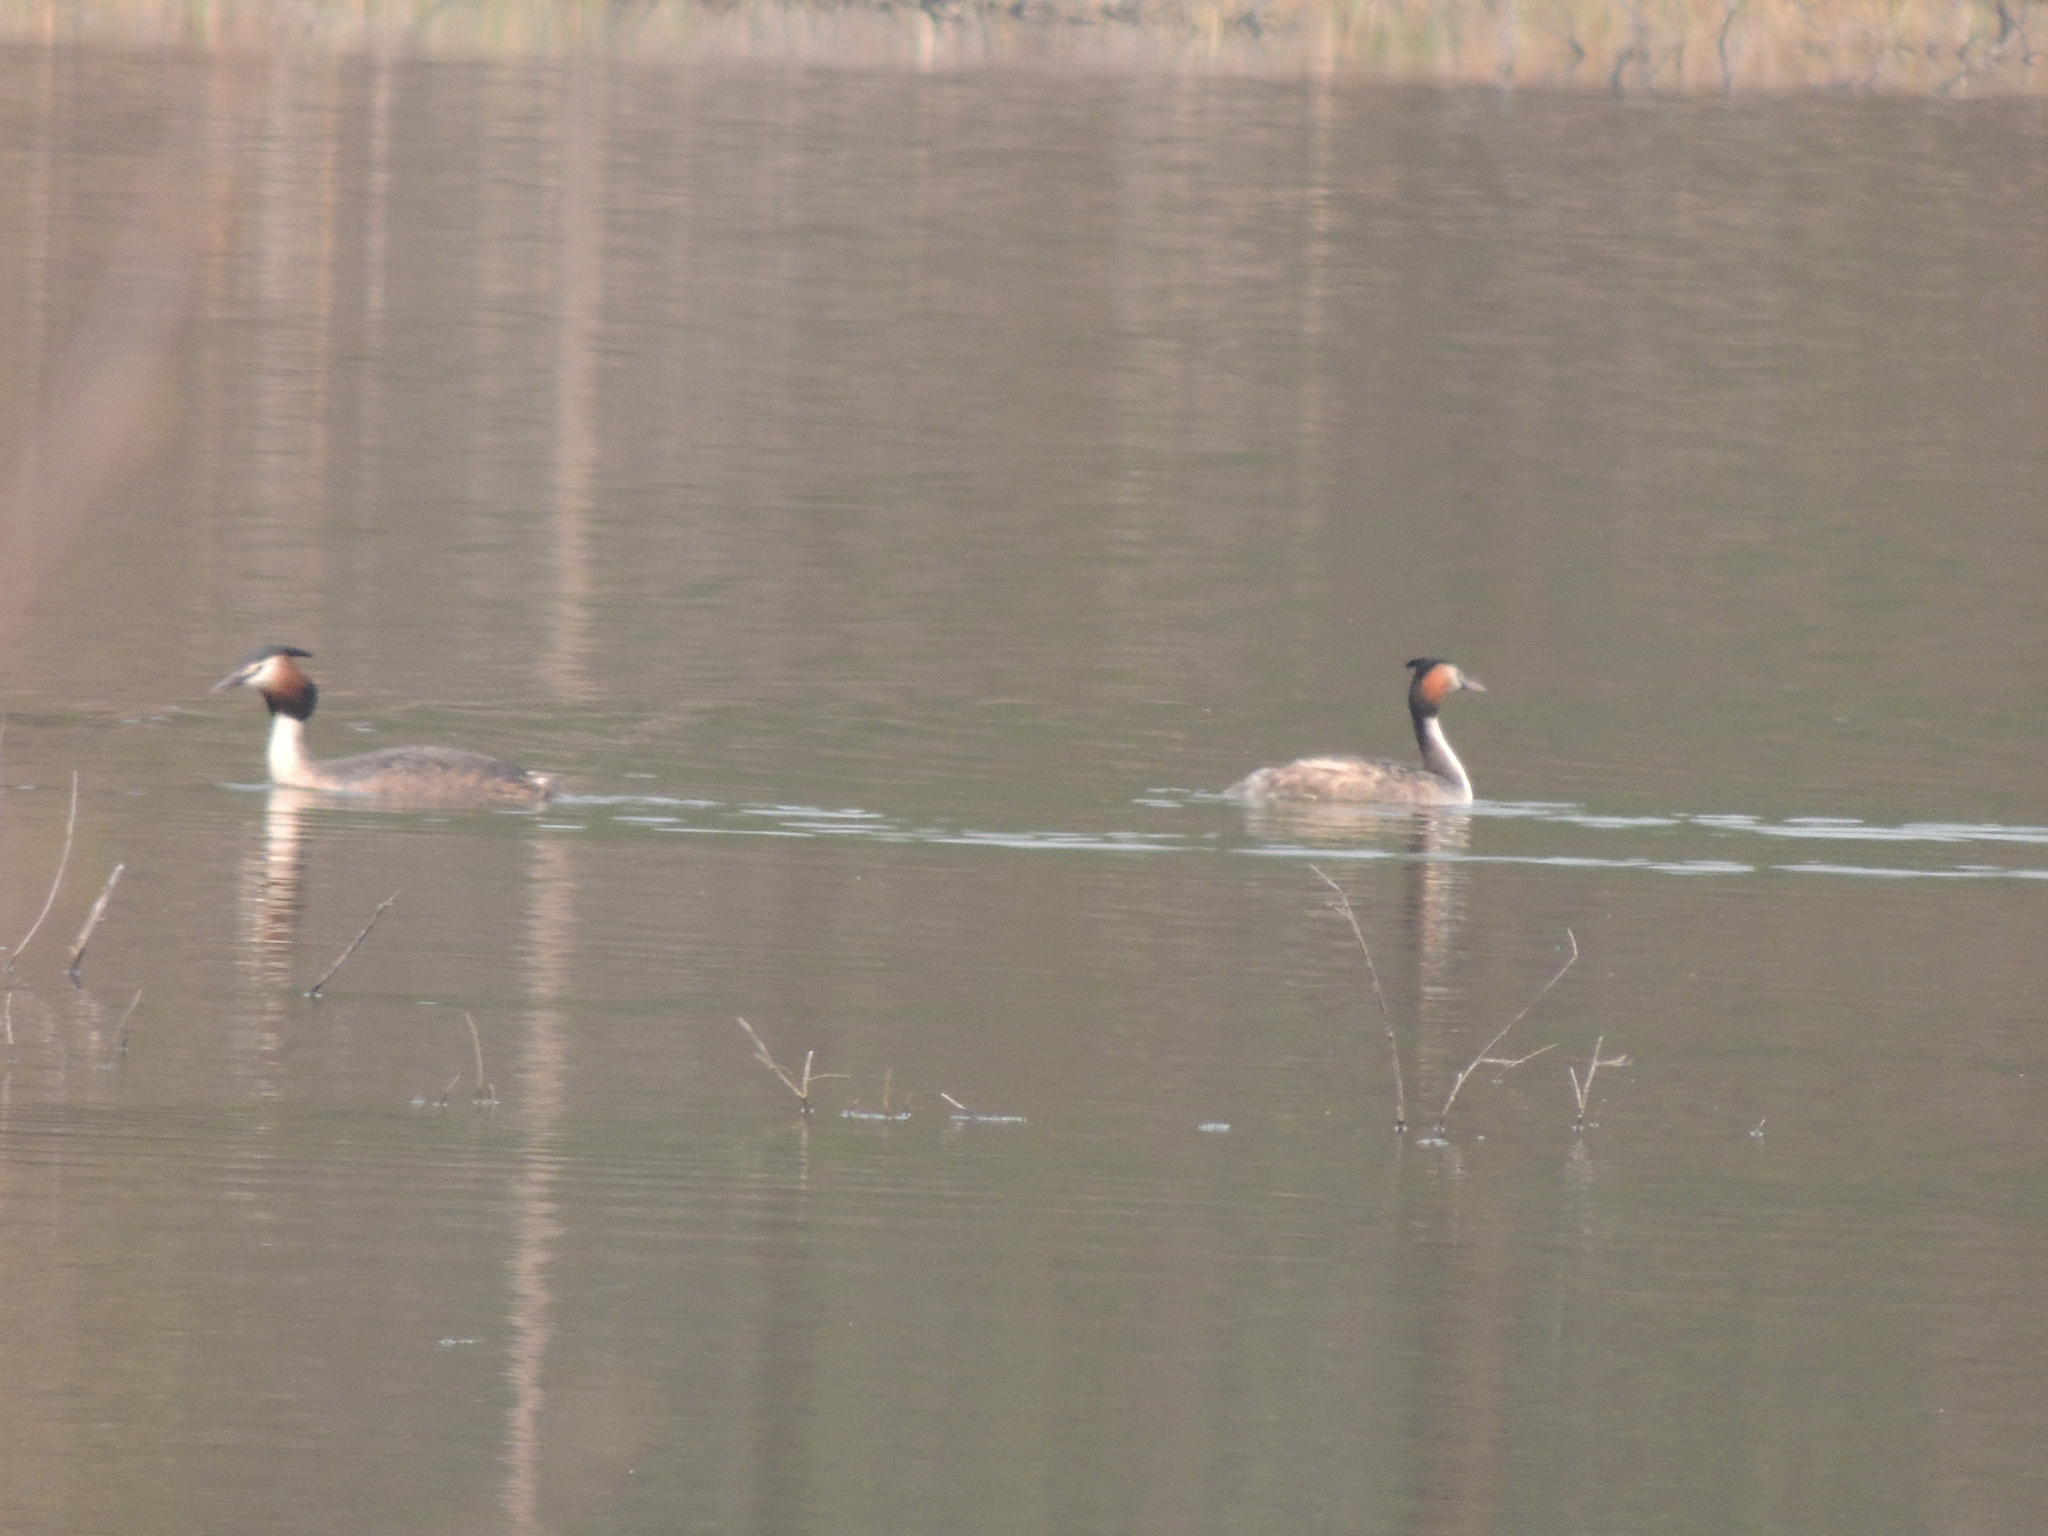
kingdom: Animalia
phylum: Chordata
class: Aves
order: Podicipediformes
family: Podicipedidae
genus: Podiceps
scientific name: Podiceps cristatus
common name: Great crested grebe
